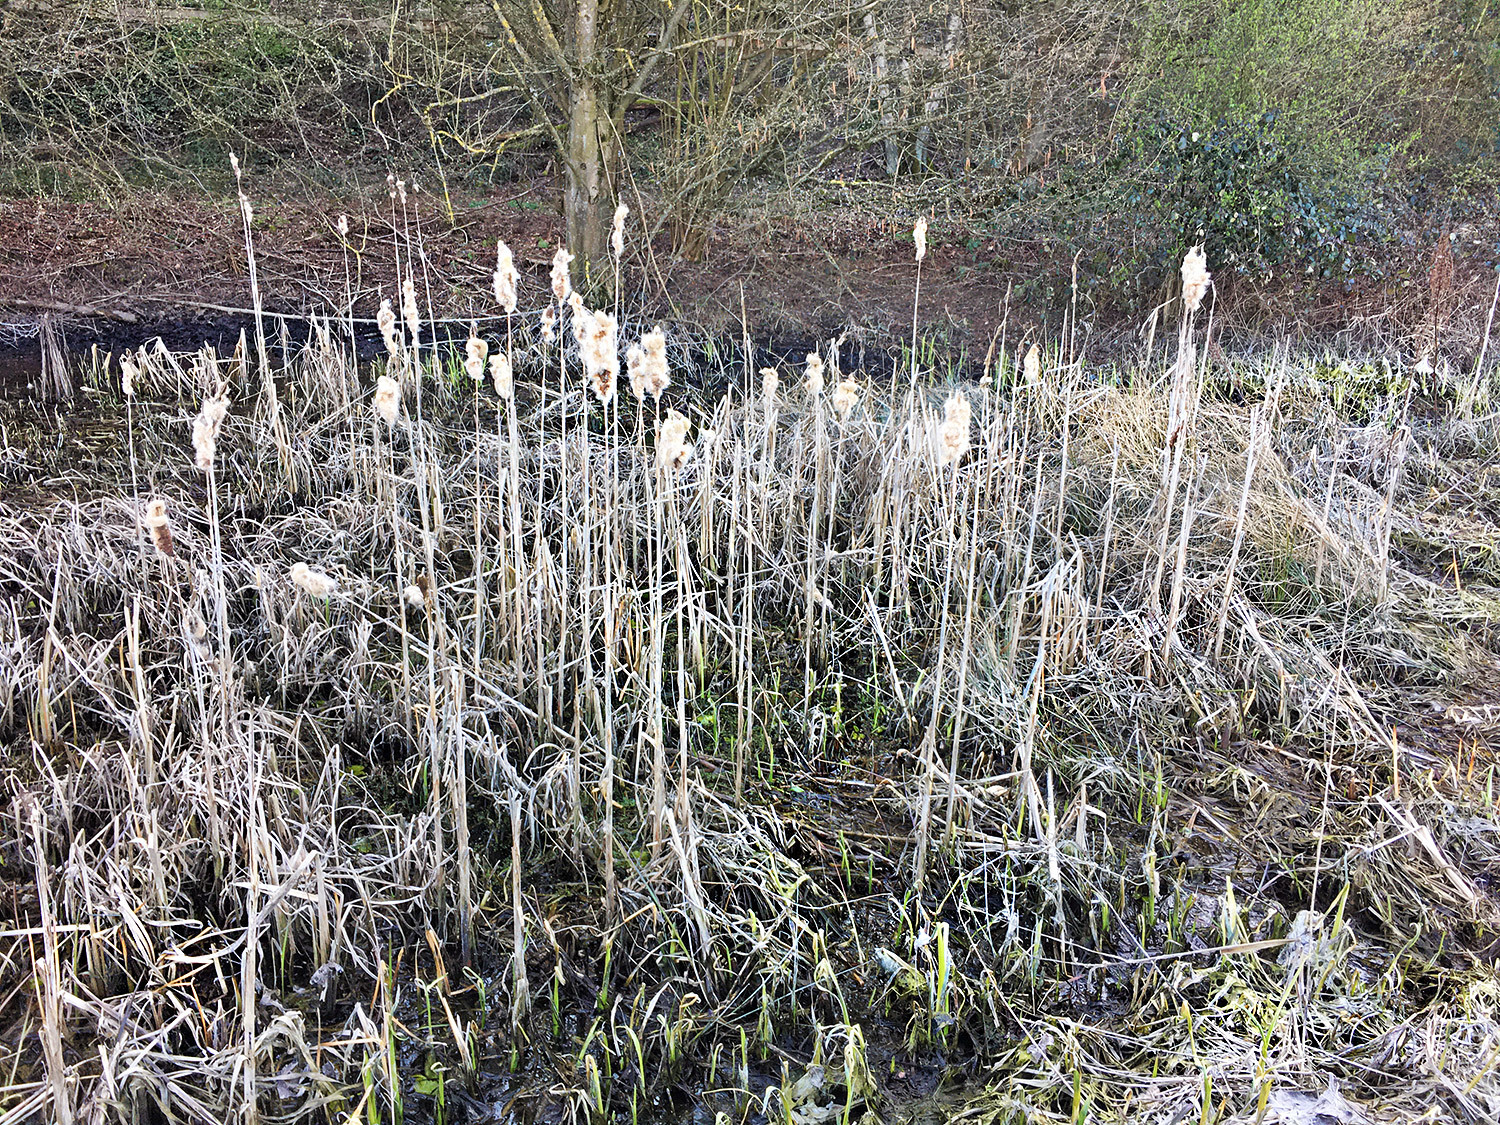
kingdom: Plantae
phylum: Tracheophyta
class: Liliopsida
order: Poales
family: Typhaceae
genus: Typha
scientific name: Typha latifolia
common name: Broadleaf cattail
